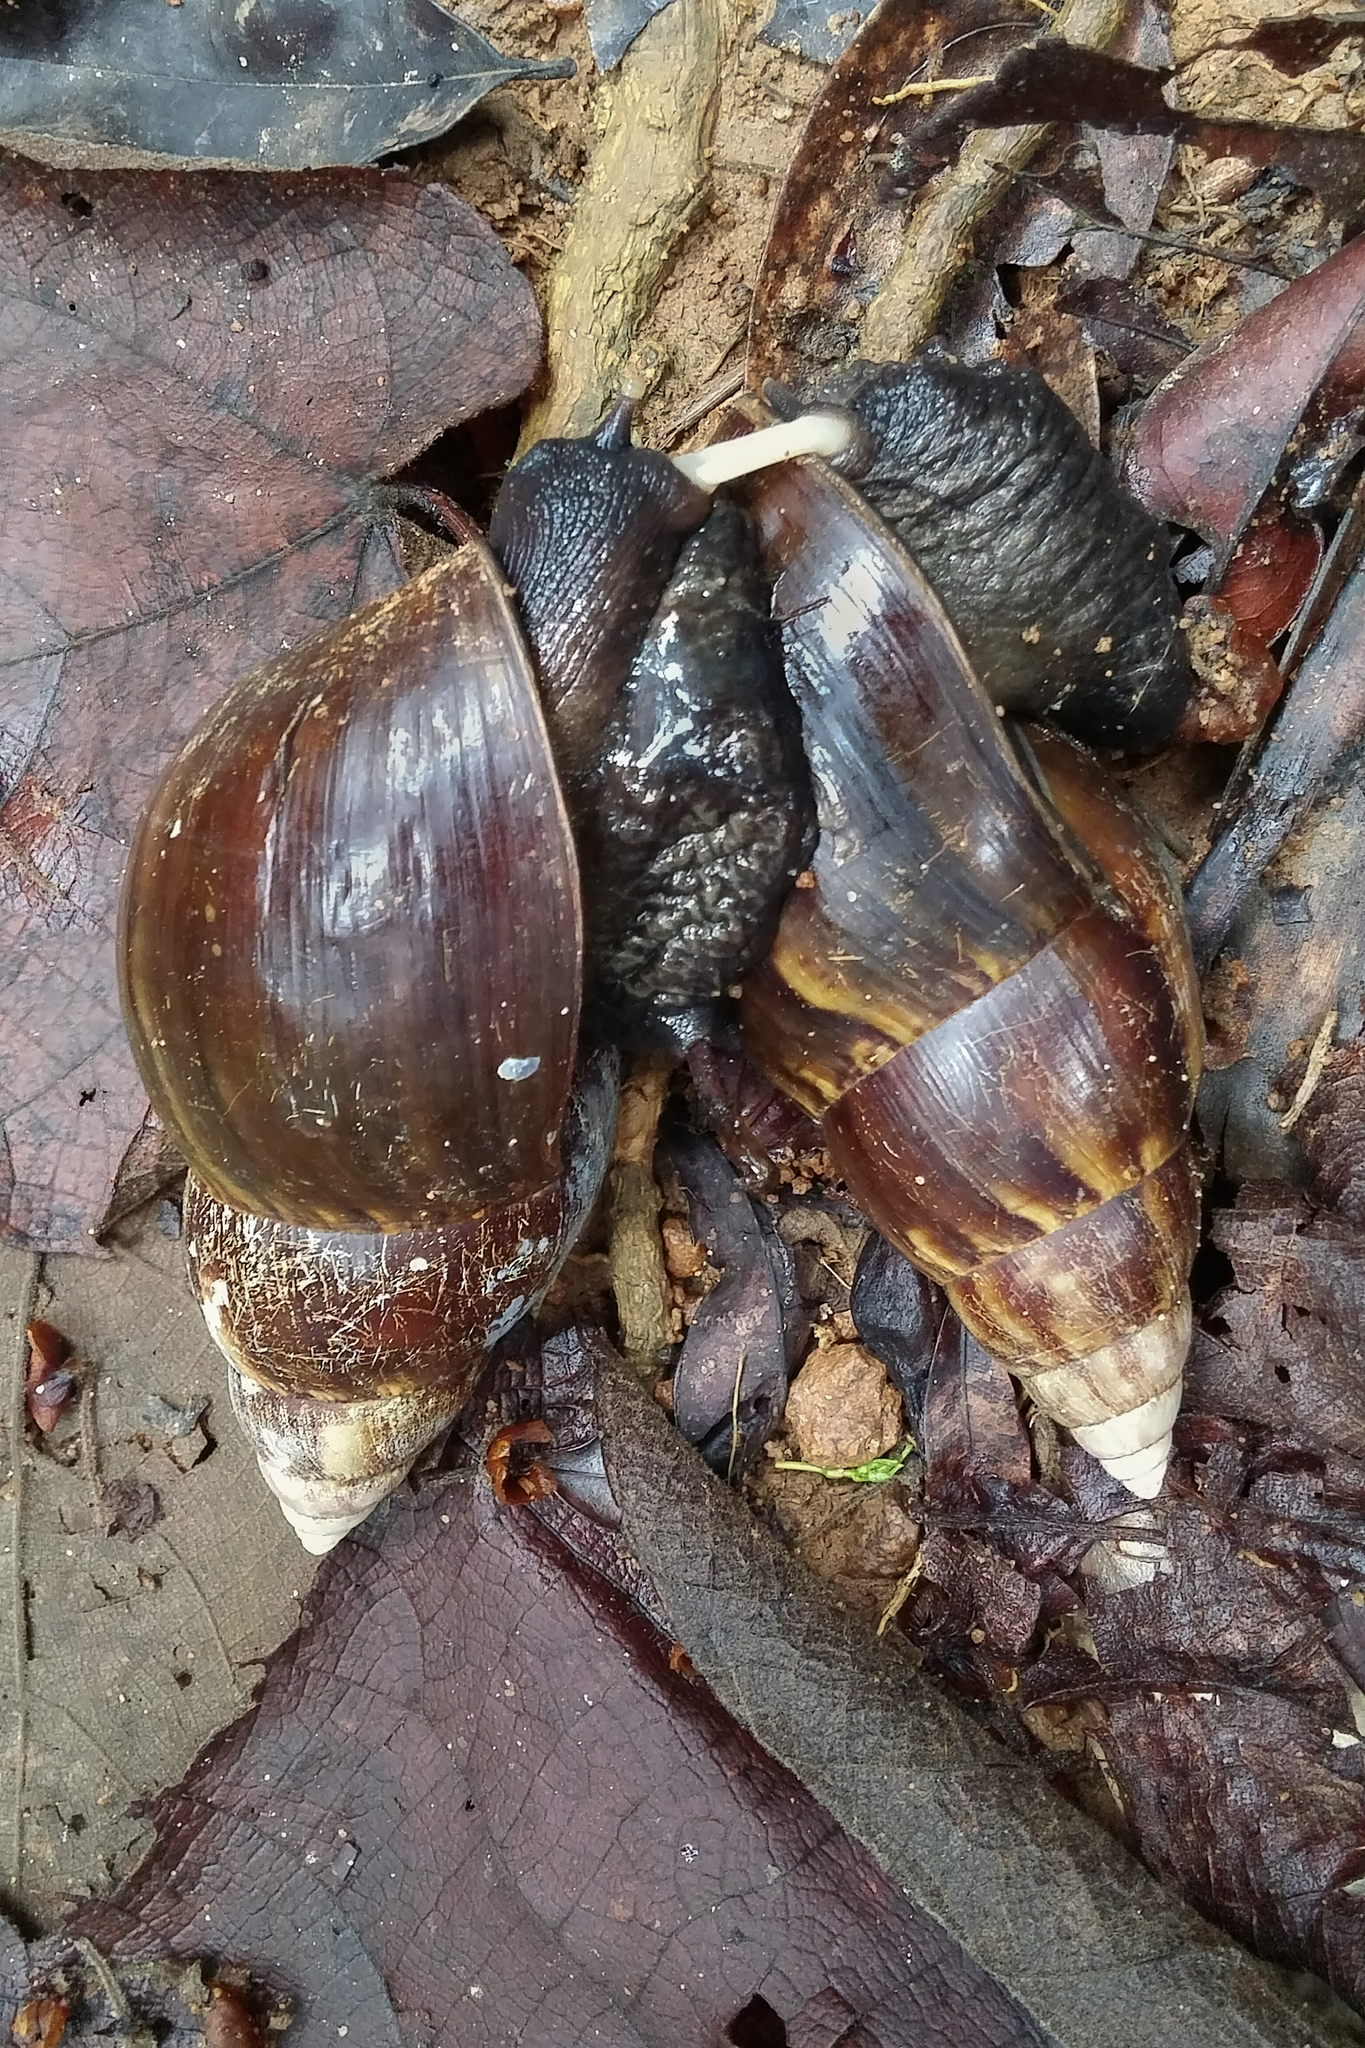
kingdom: Animalia
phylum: Mollusca
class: Gastropoda
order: Stylommatophora
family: Achatinidae
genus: Lissachatina
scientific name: Lissachatina fulica
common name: Giant african snail
